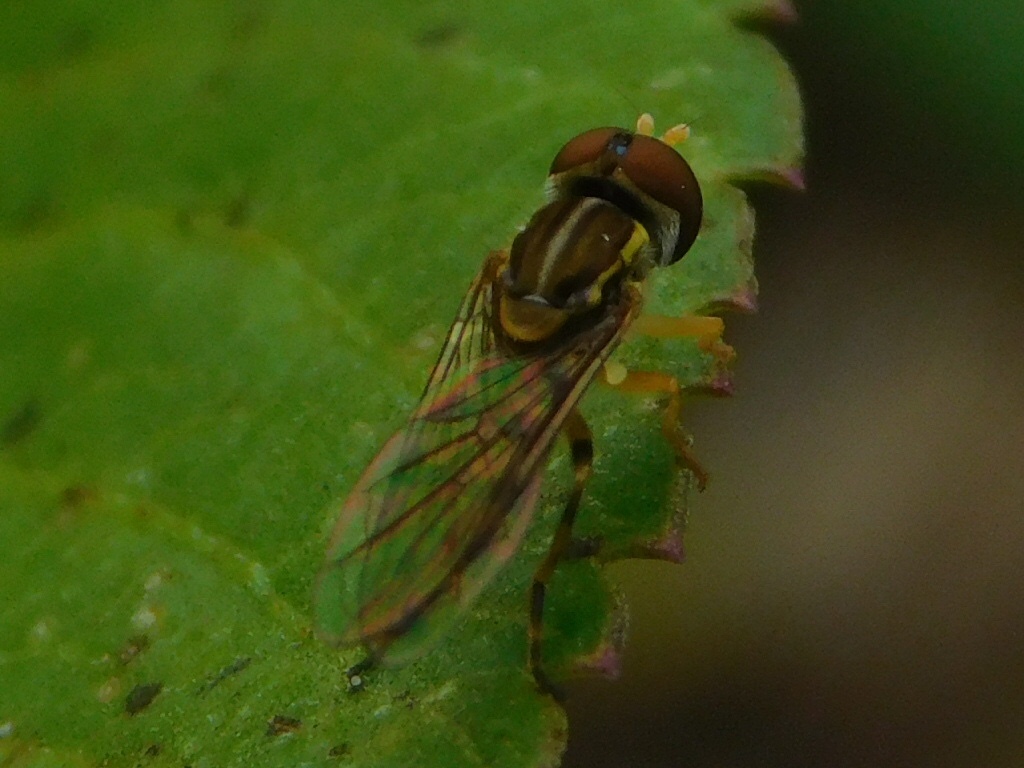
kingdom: Animalia
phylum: Arthropoda
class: Insecta
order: Diptera
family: Syrphidae
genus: Toxomerus
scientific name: Toxomerus floralis
